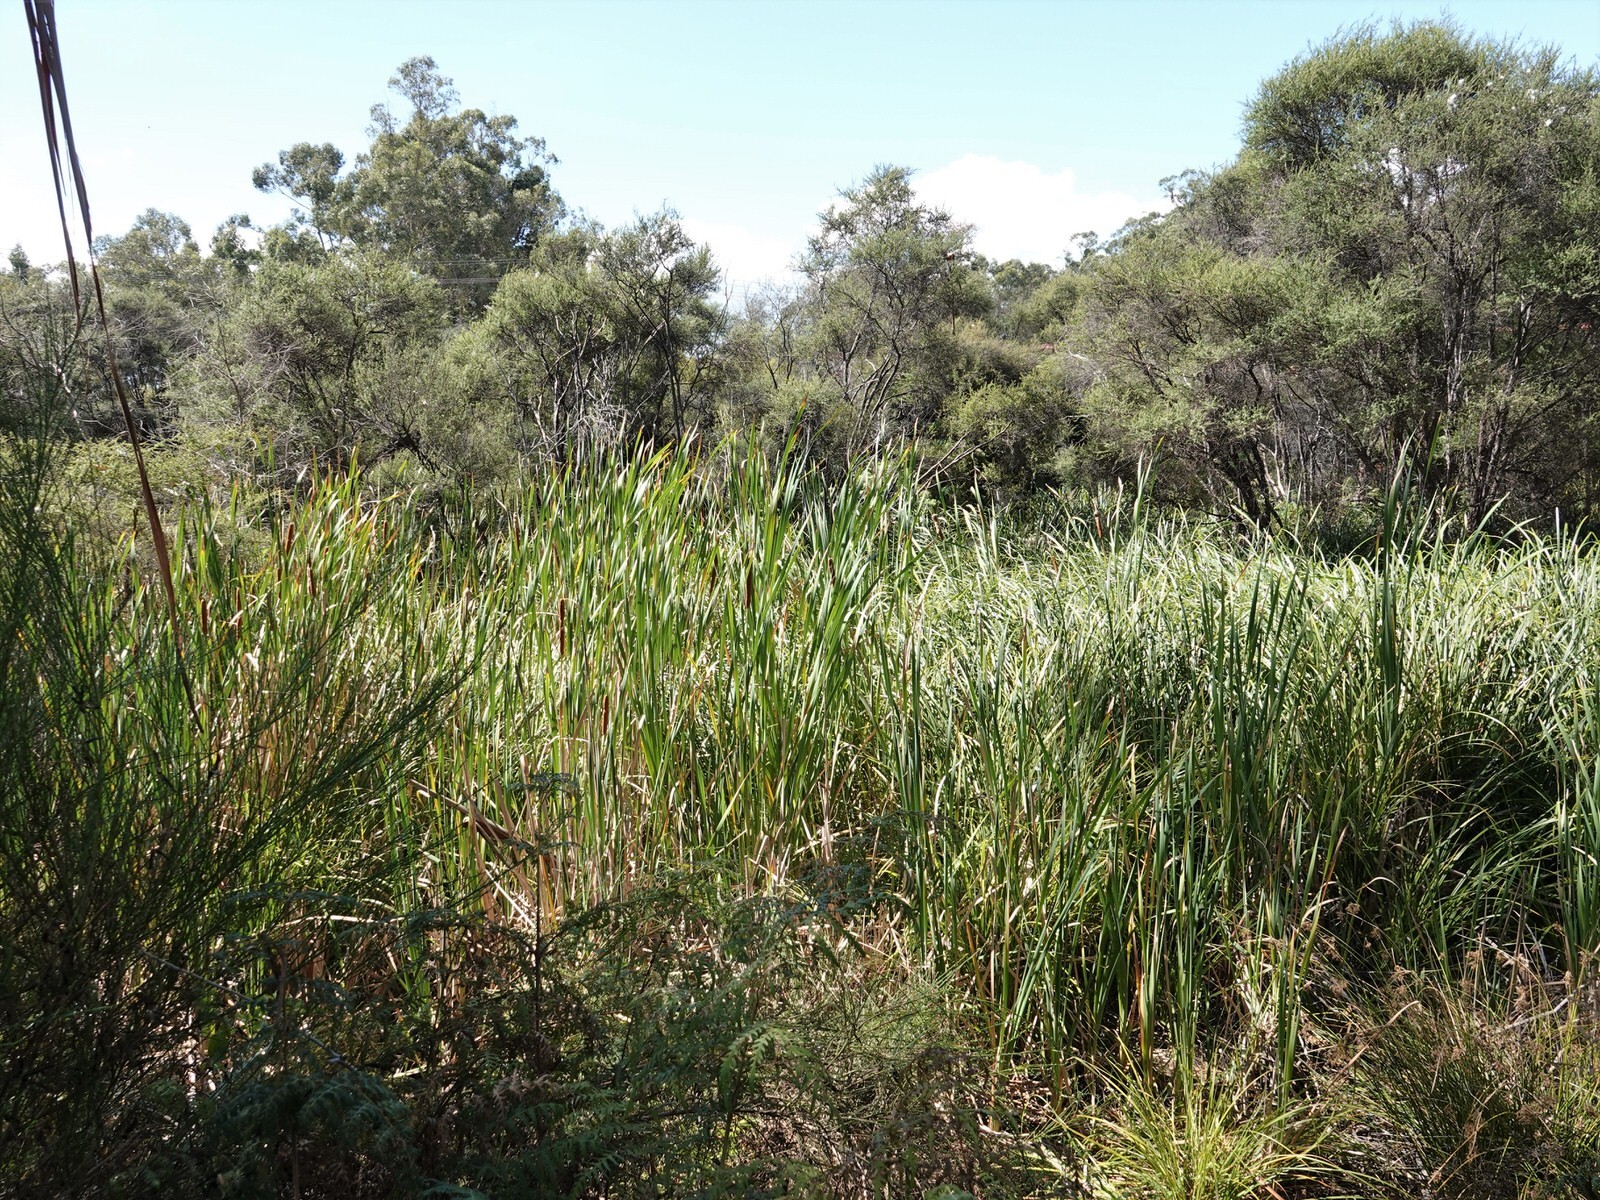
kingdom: Plantae
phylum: Tracheophyta
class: Liliopsida
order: Poales
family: Typhaceae
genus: Typha
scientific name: Typha orientalis
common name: Bullrush
